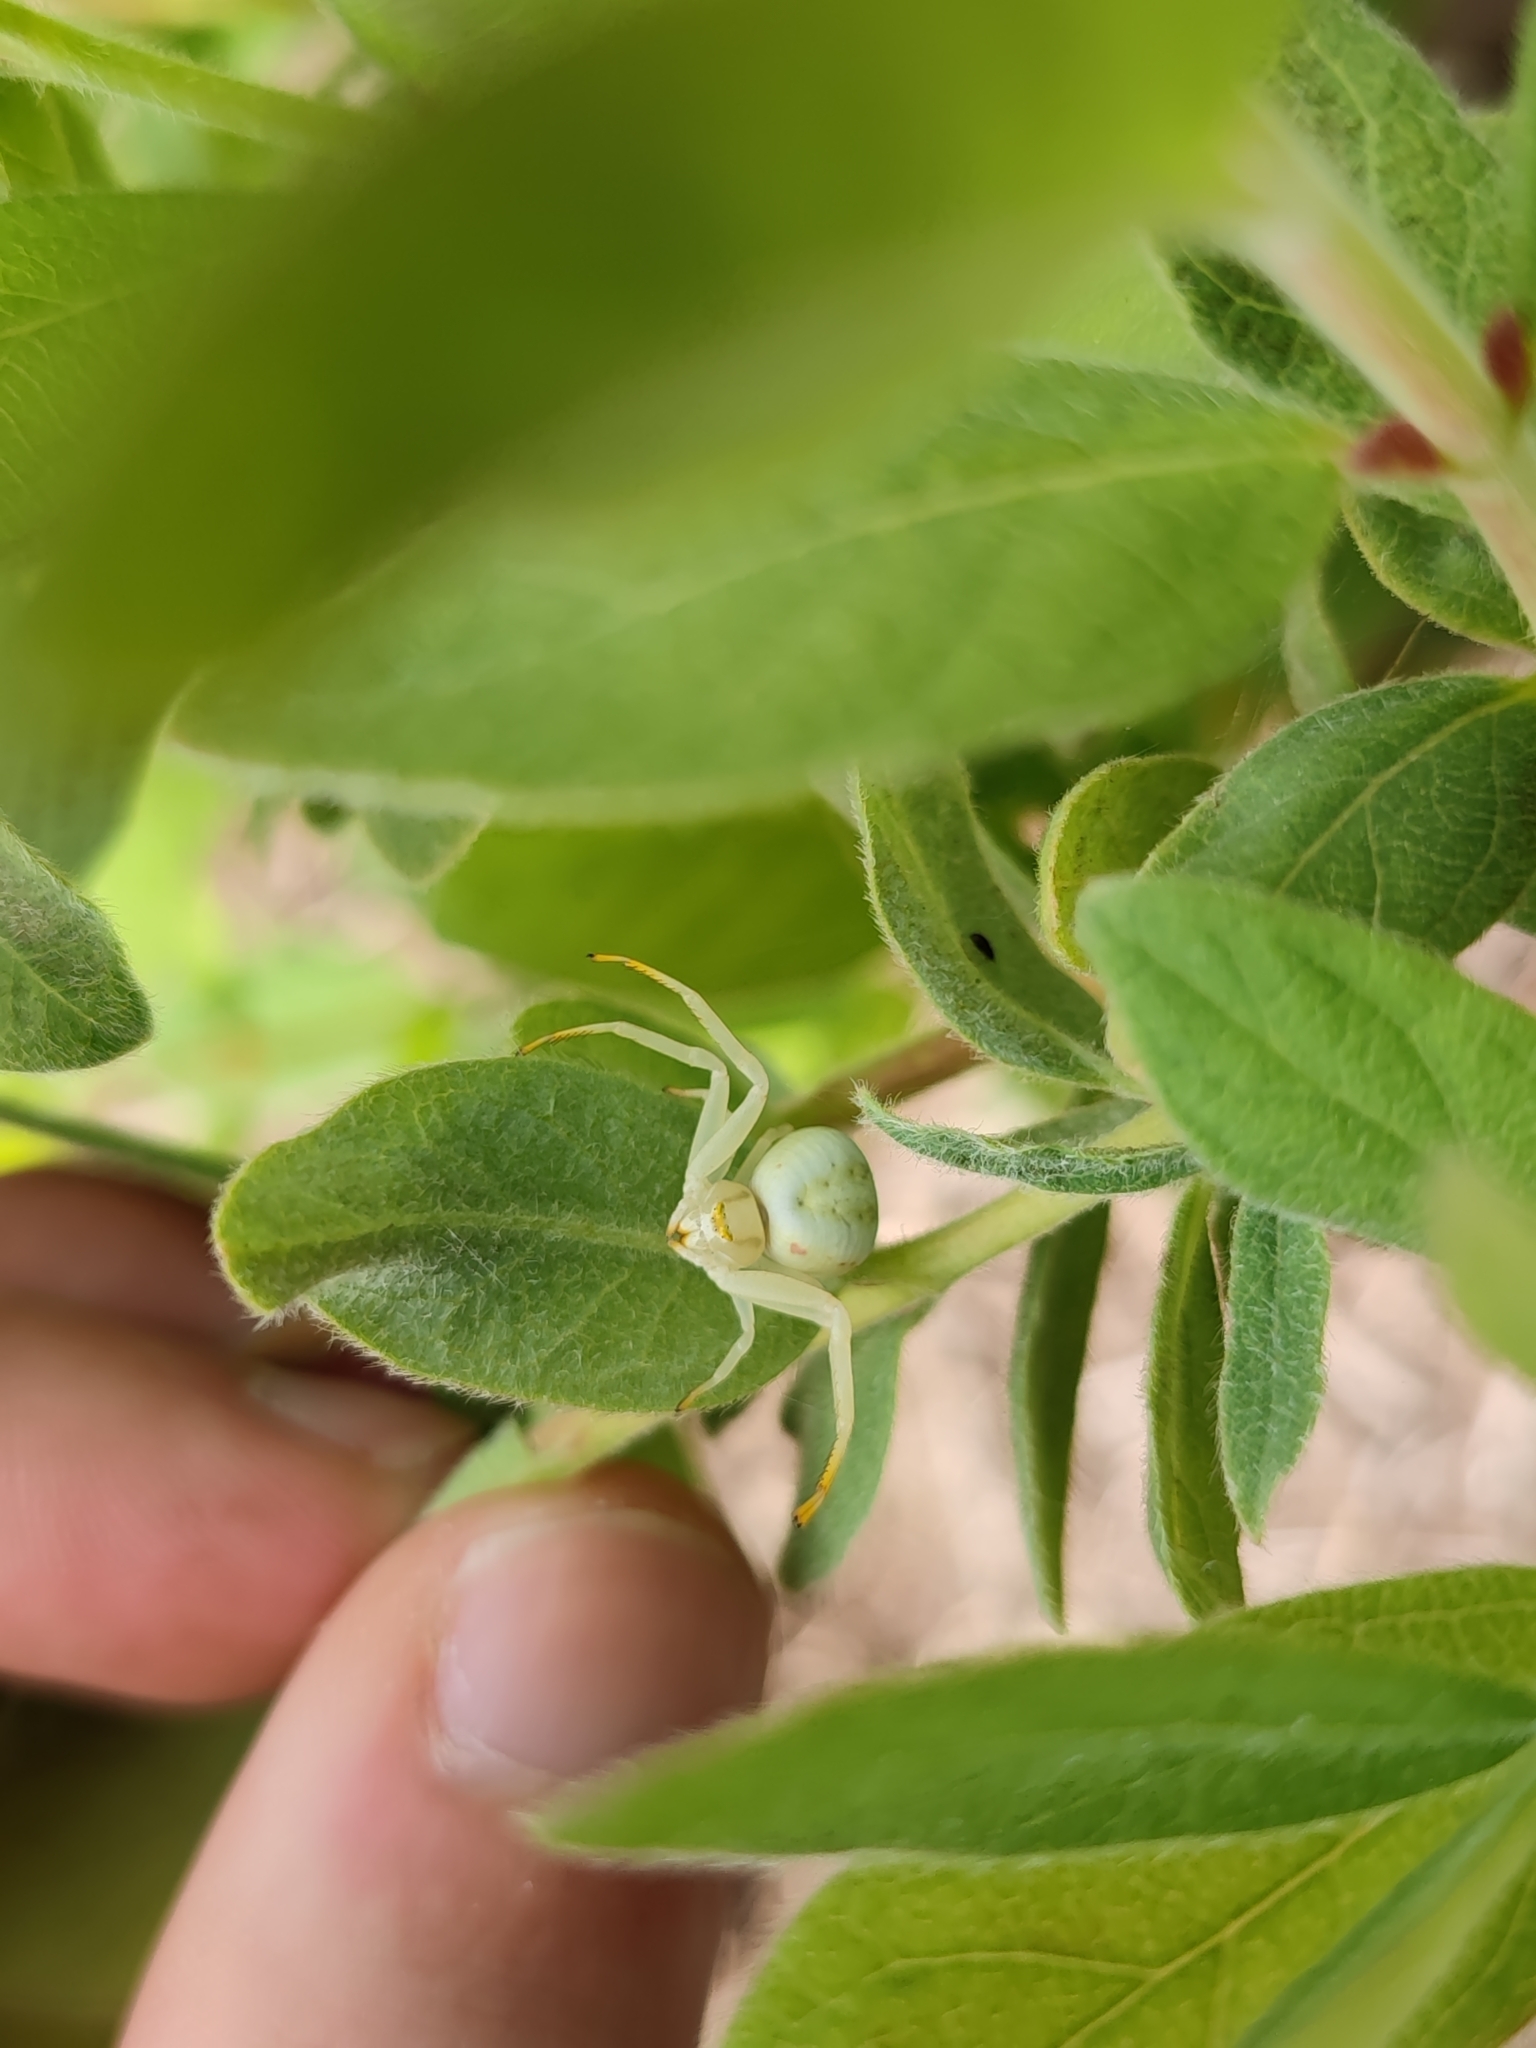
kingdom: Animalia
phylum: Arthropoda
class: Arachnida
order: Araneae
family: Thomisidae
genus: Misumena
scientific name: Misumena vatia
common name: Goldenrod crab spider
